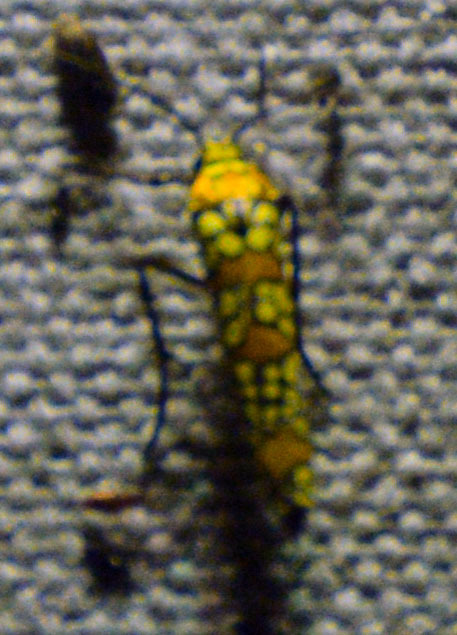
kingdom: Animalia
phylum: Arthropoda
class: Insecta
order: Lepidoptera
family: Attevidae
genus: Atteva
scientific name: Atteva punctella
